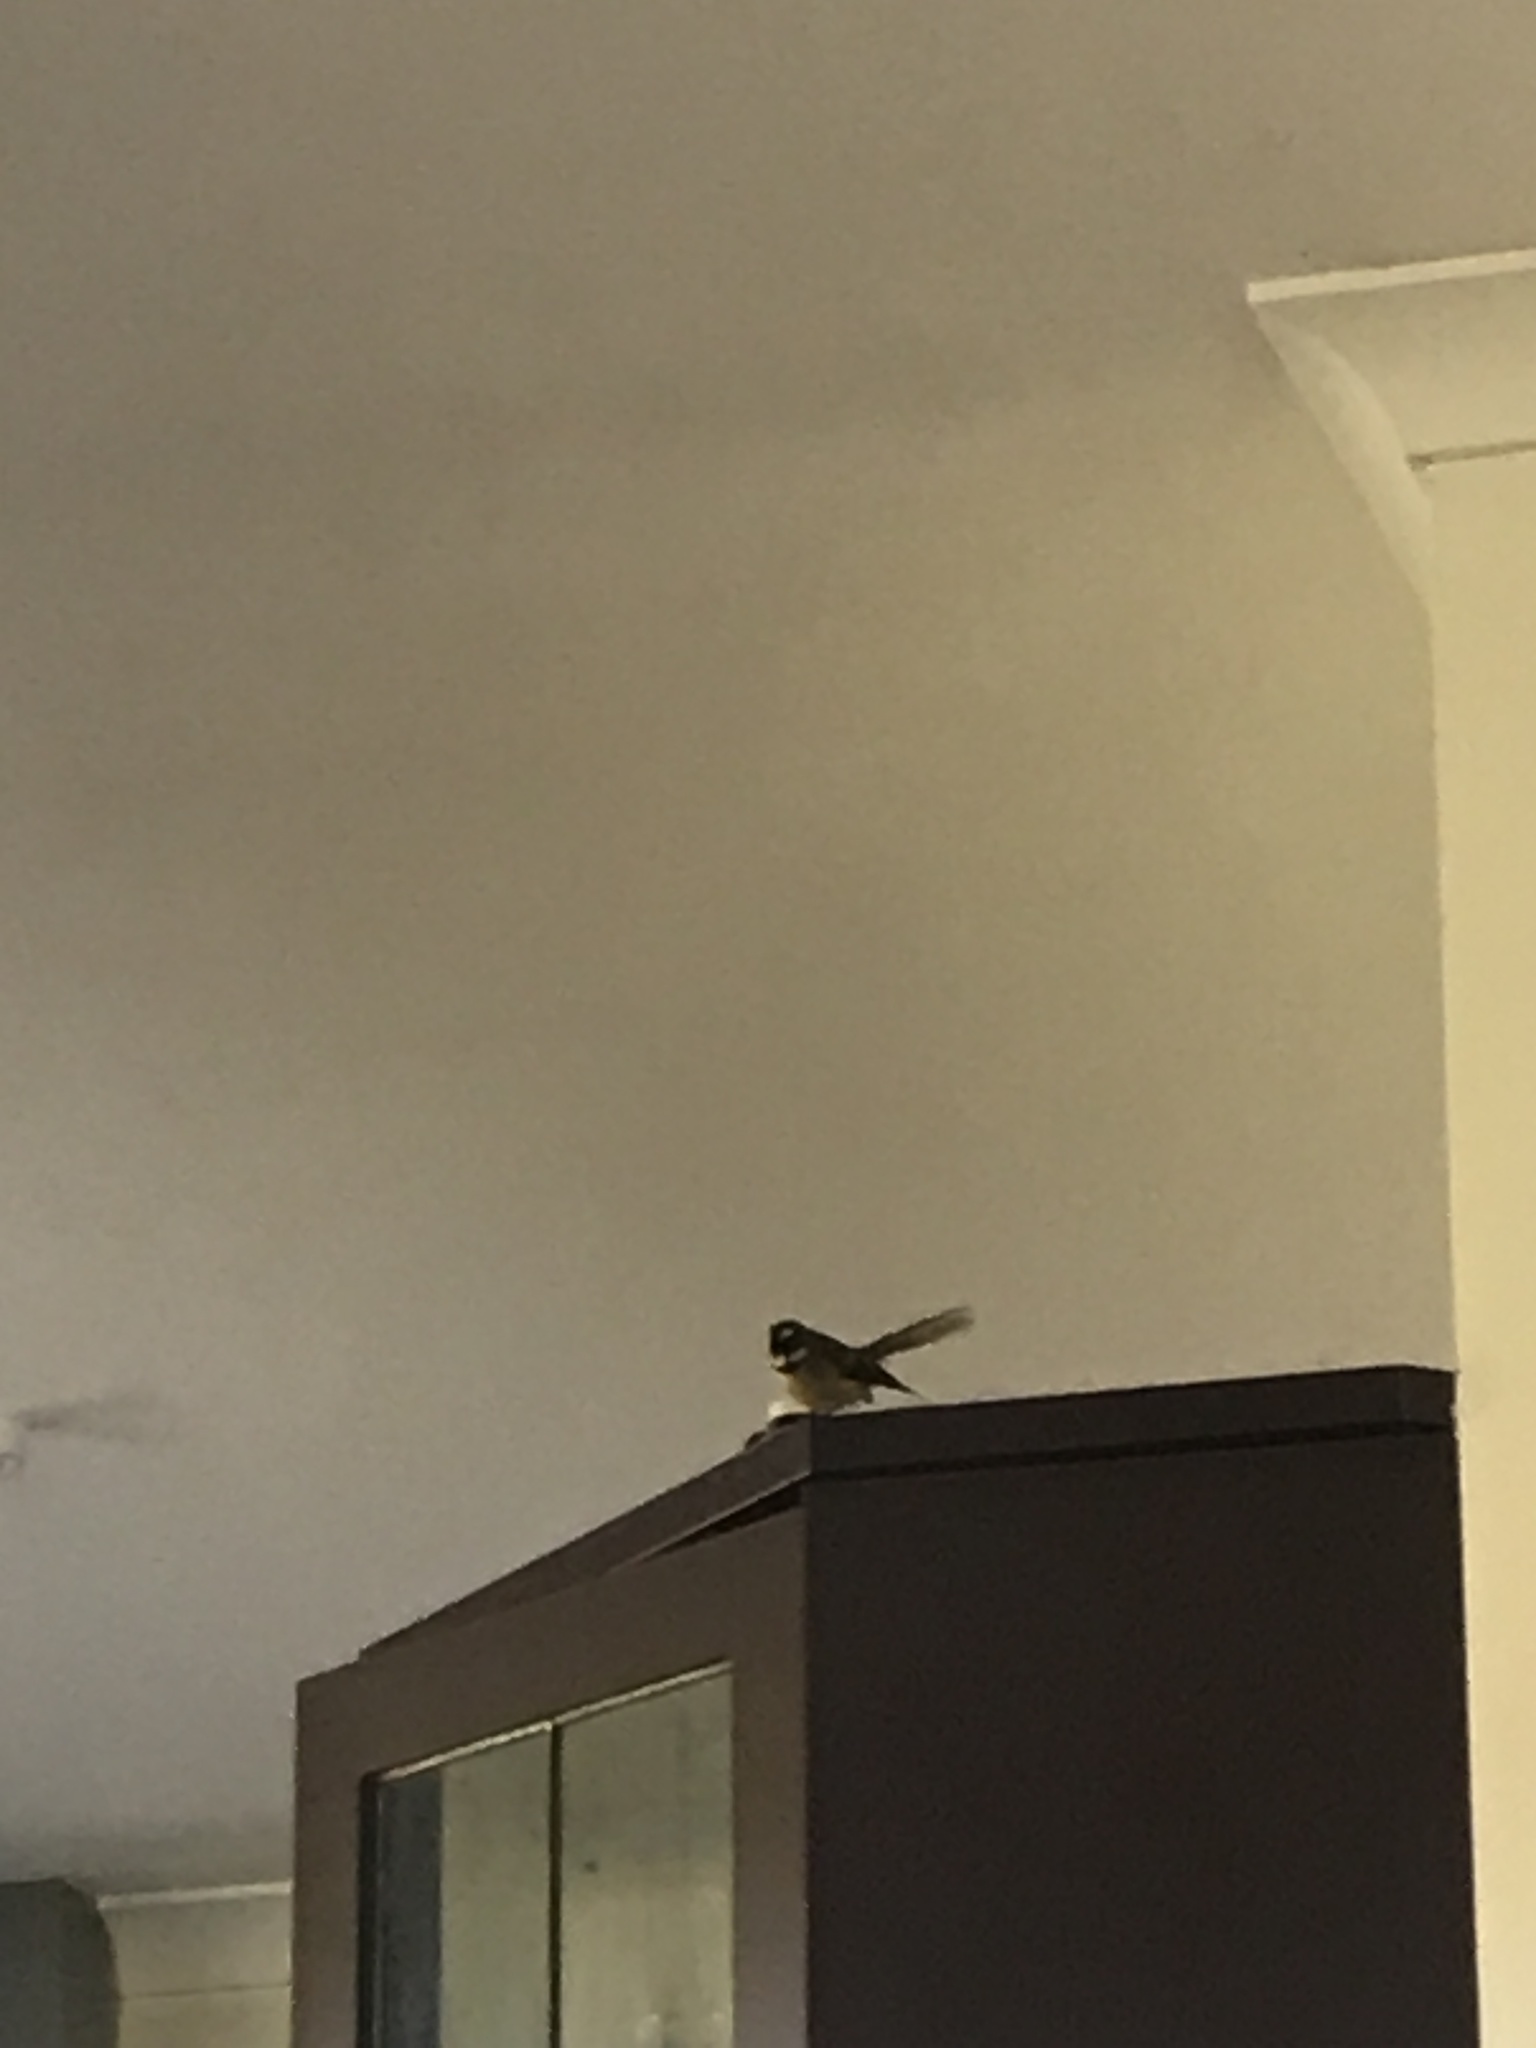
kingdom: Animalia
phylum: Chordata
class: Aves
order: Passeriformes
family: Rhipiduridae
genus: Rhipidura
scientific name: Rhipidura fuliginosa
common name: New zealand fantail
